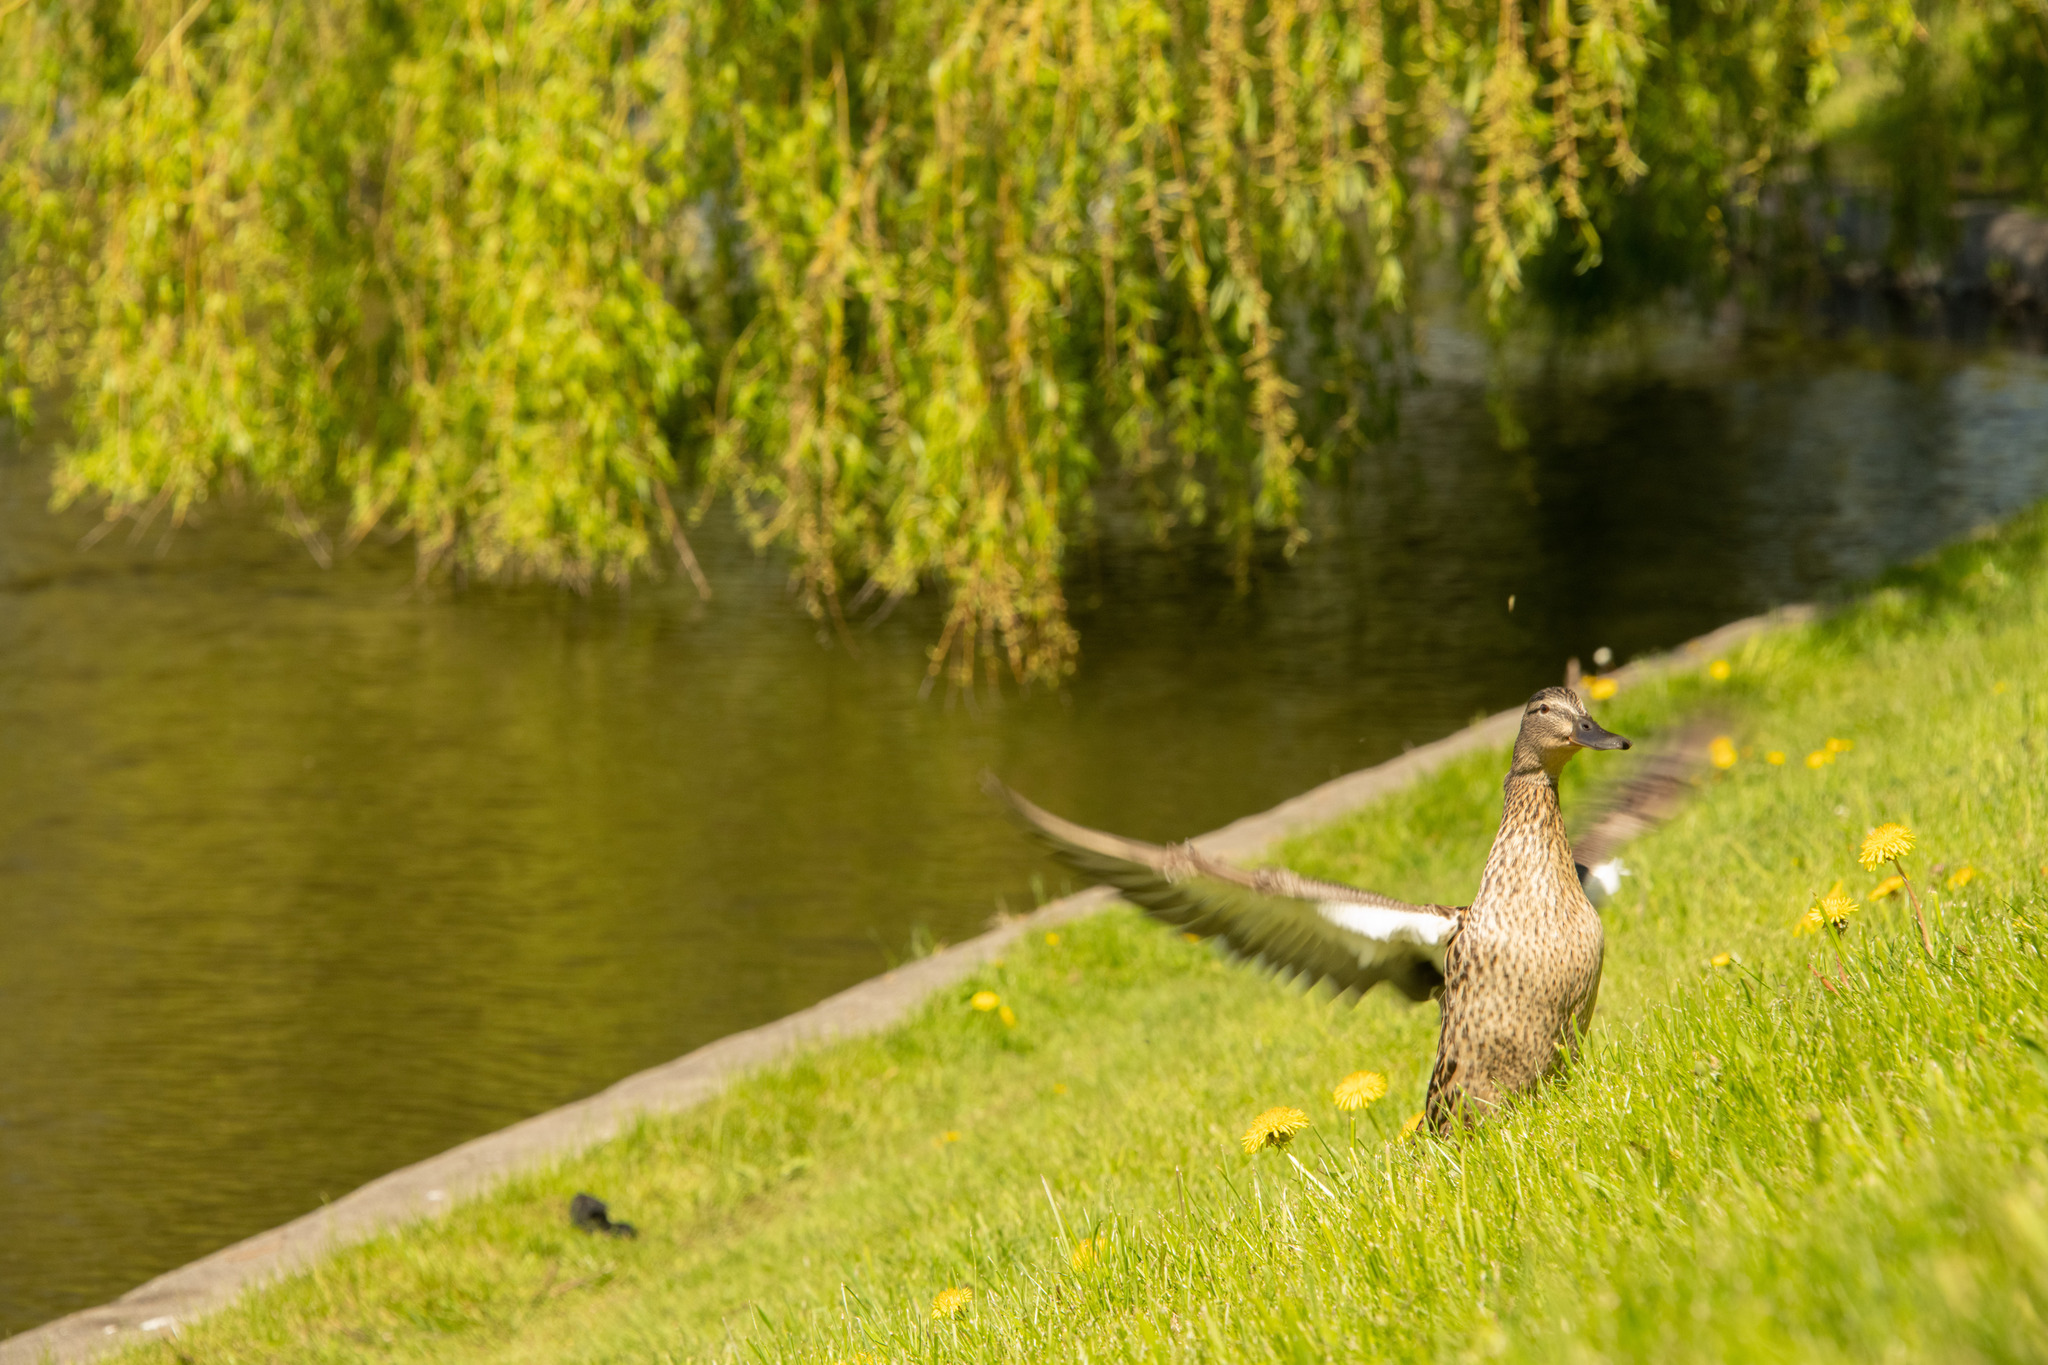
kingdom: Animalia
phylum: Chordata
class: Aves
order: Anseriformes
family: Anatidae
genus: Anas
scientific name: Anas platyrhynchos
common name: Mallard
